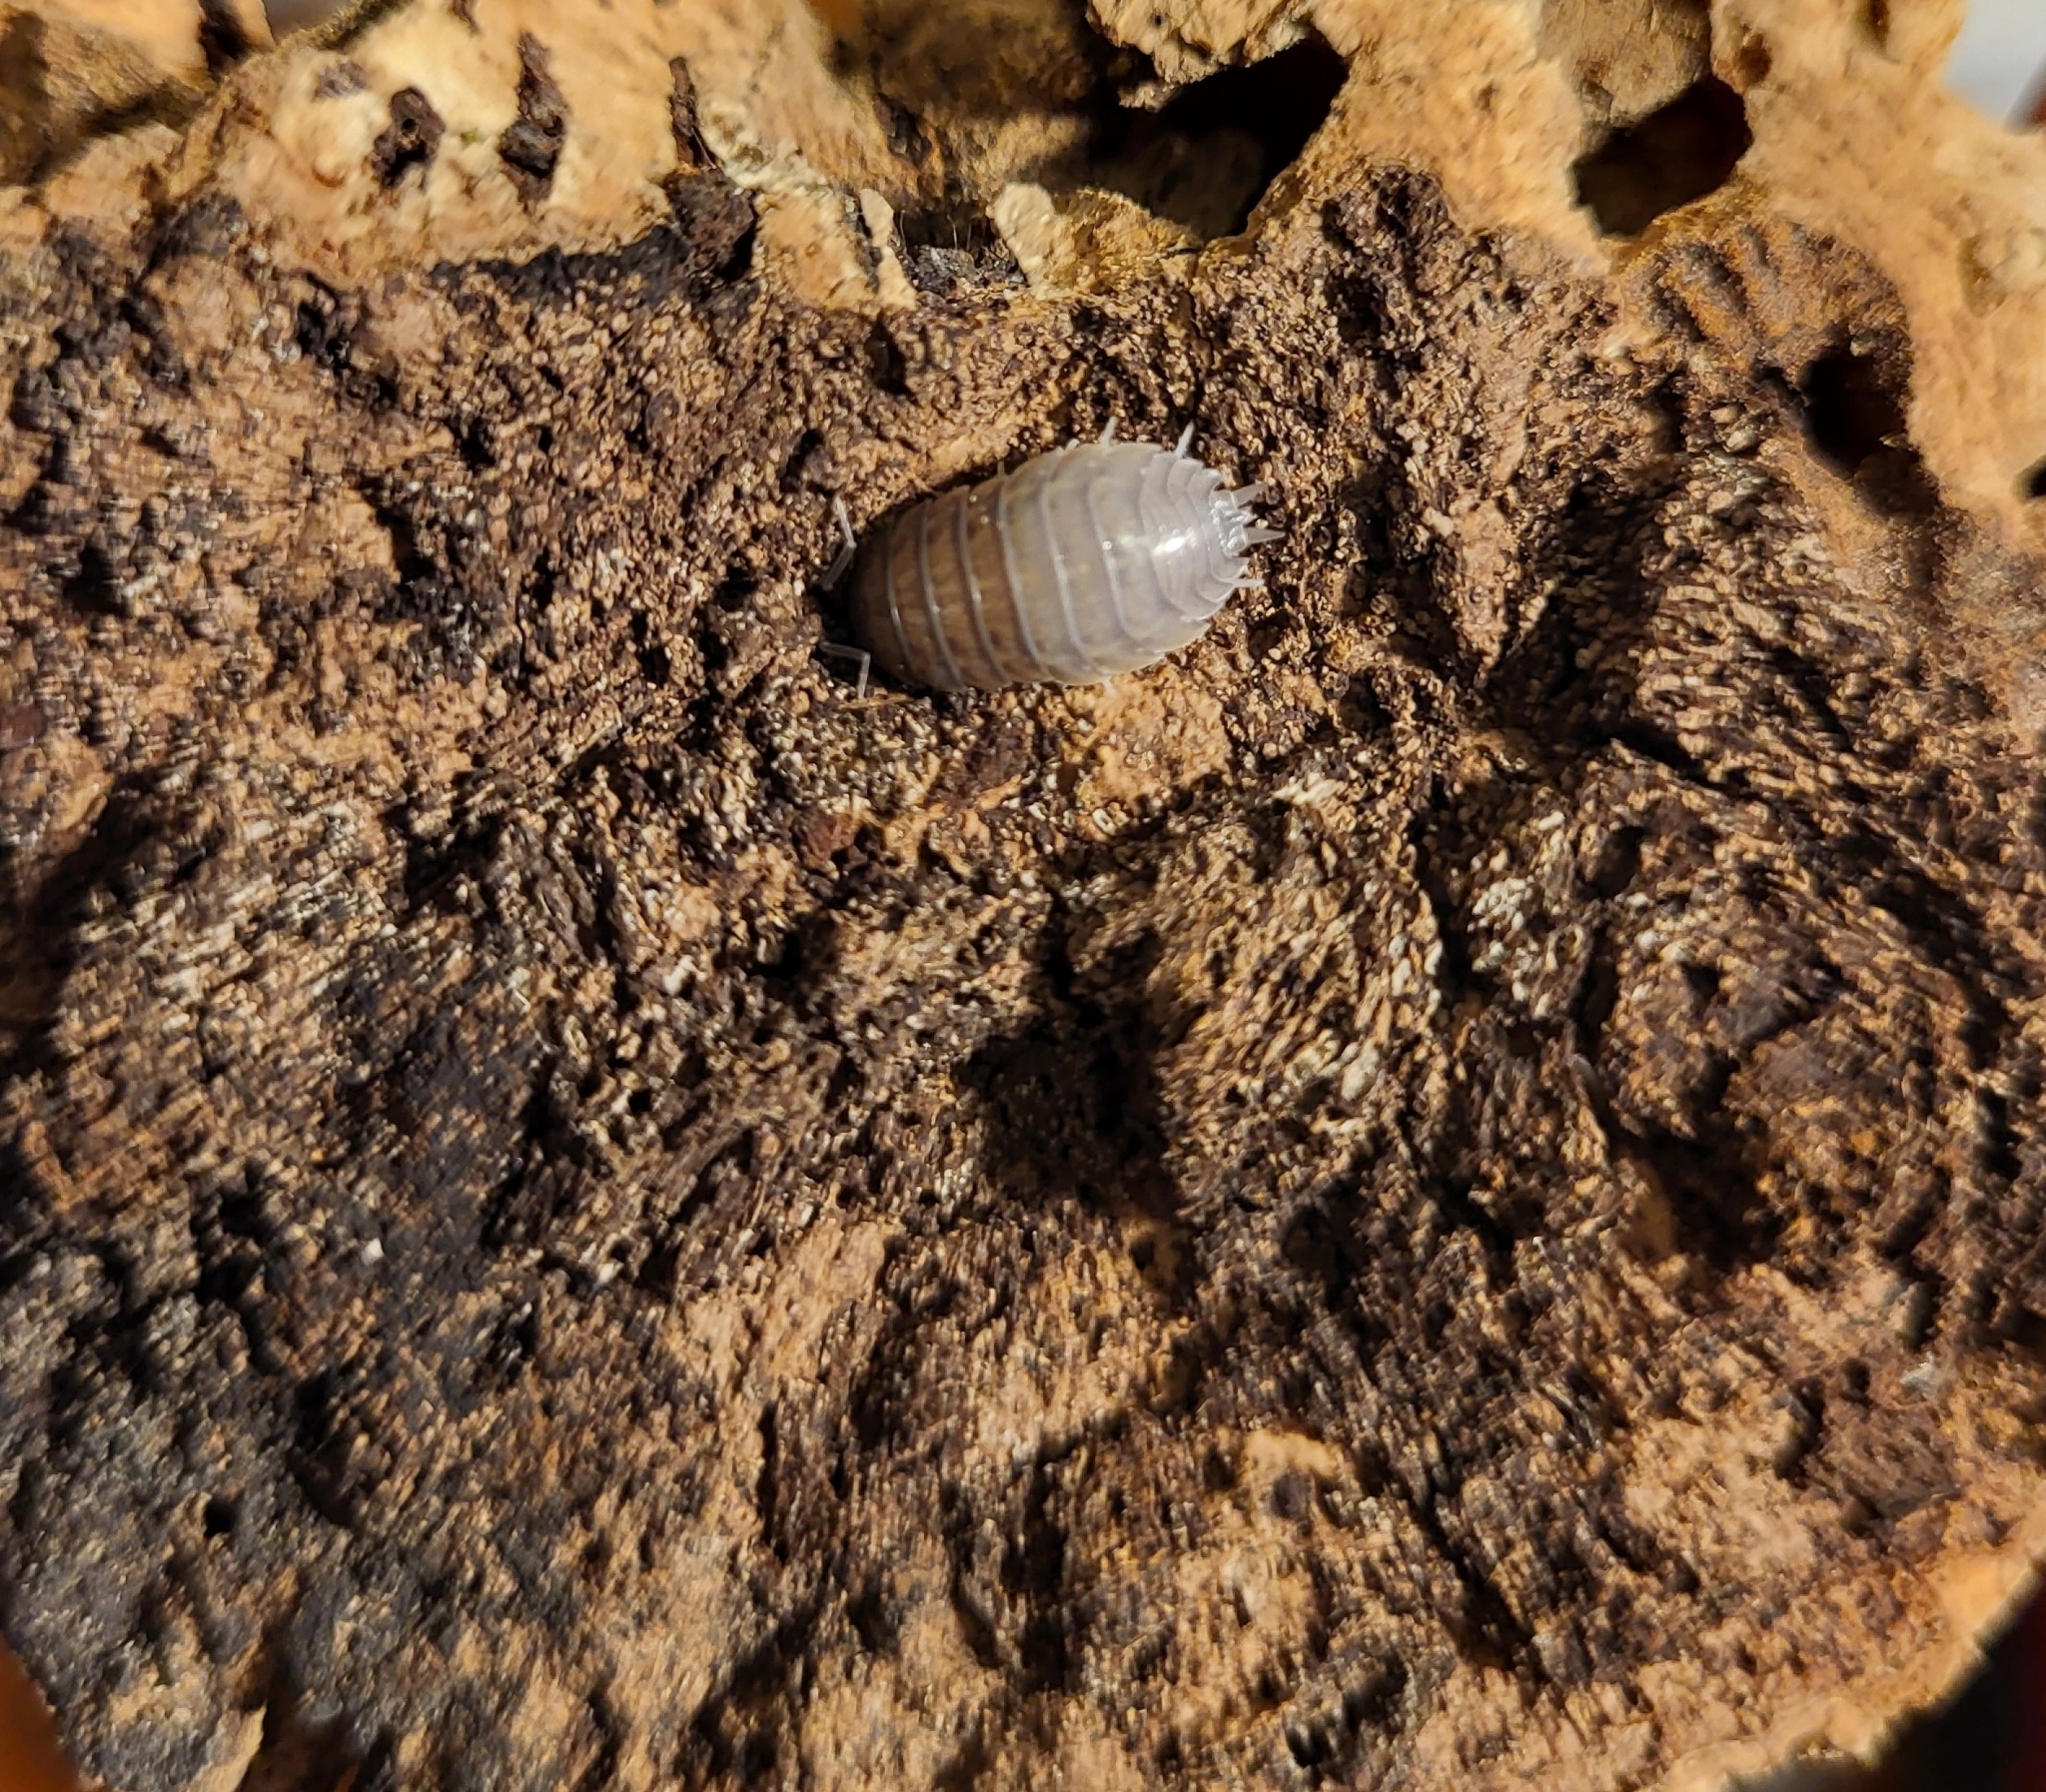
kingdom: Animalia
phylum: Arthropoda
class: Malacostraca
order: Isopoda
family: Porcellionidae
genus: Porcellio
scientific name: Porcellio laevis
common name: Swift woodlouse
